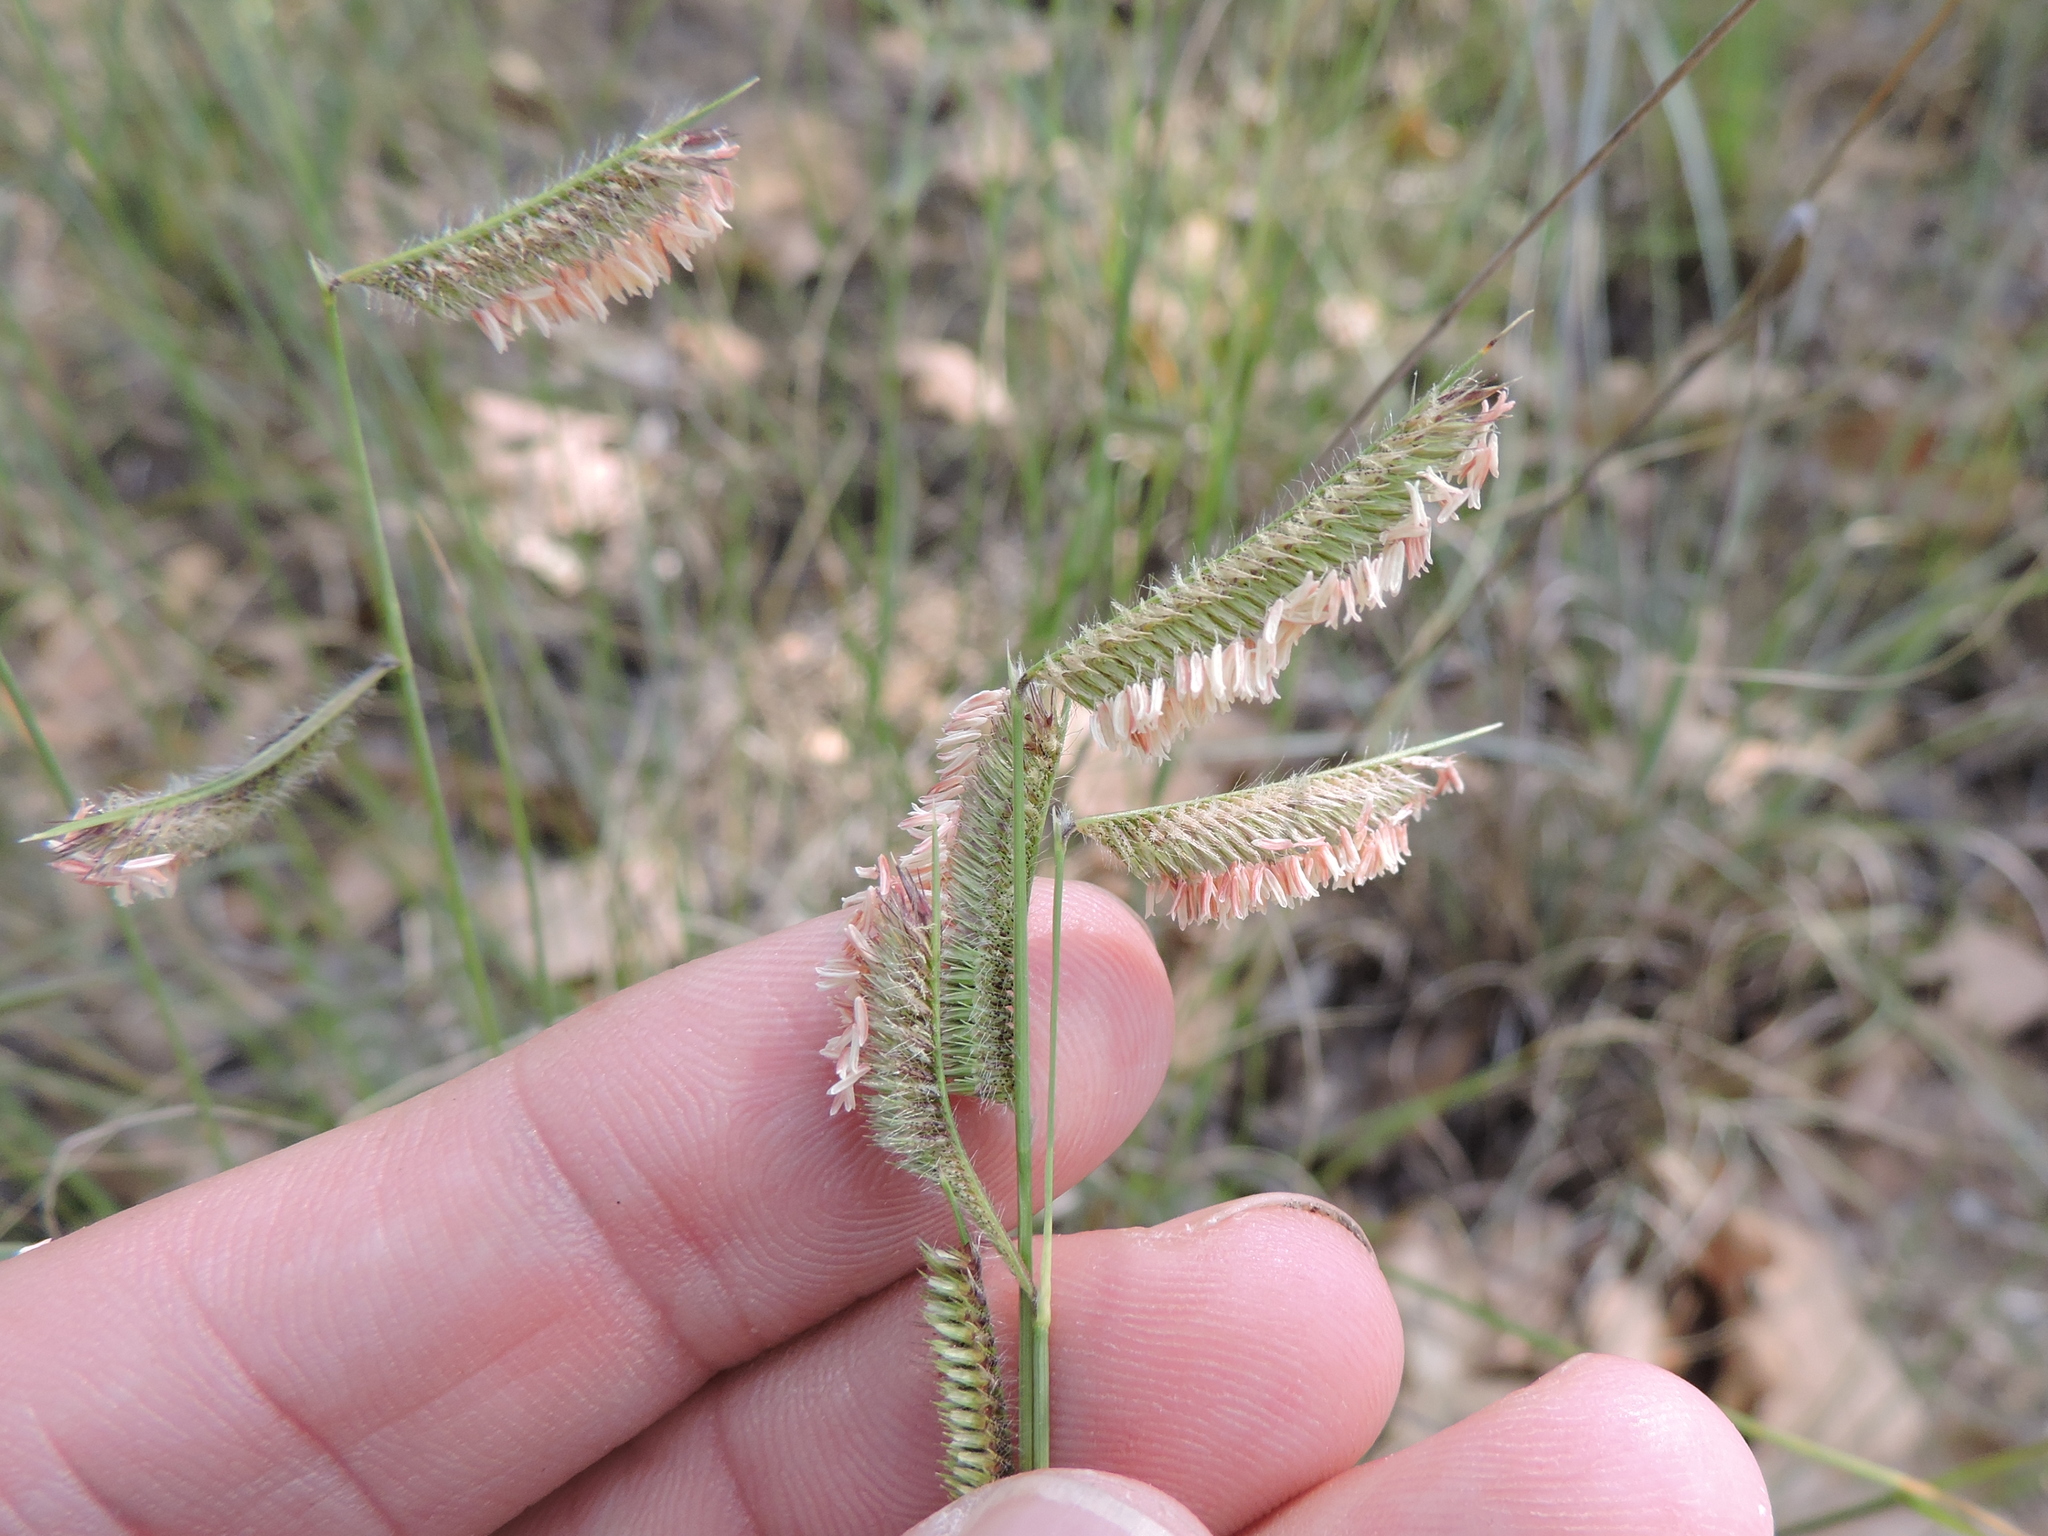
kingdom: Plantae
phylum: Tracheophyta
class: Liliopsida
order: Poales
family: Poaceae
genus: Bouteloua
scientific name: Bouteloua hirsuta
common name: Hairy grama
